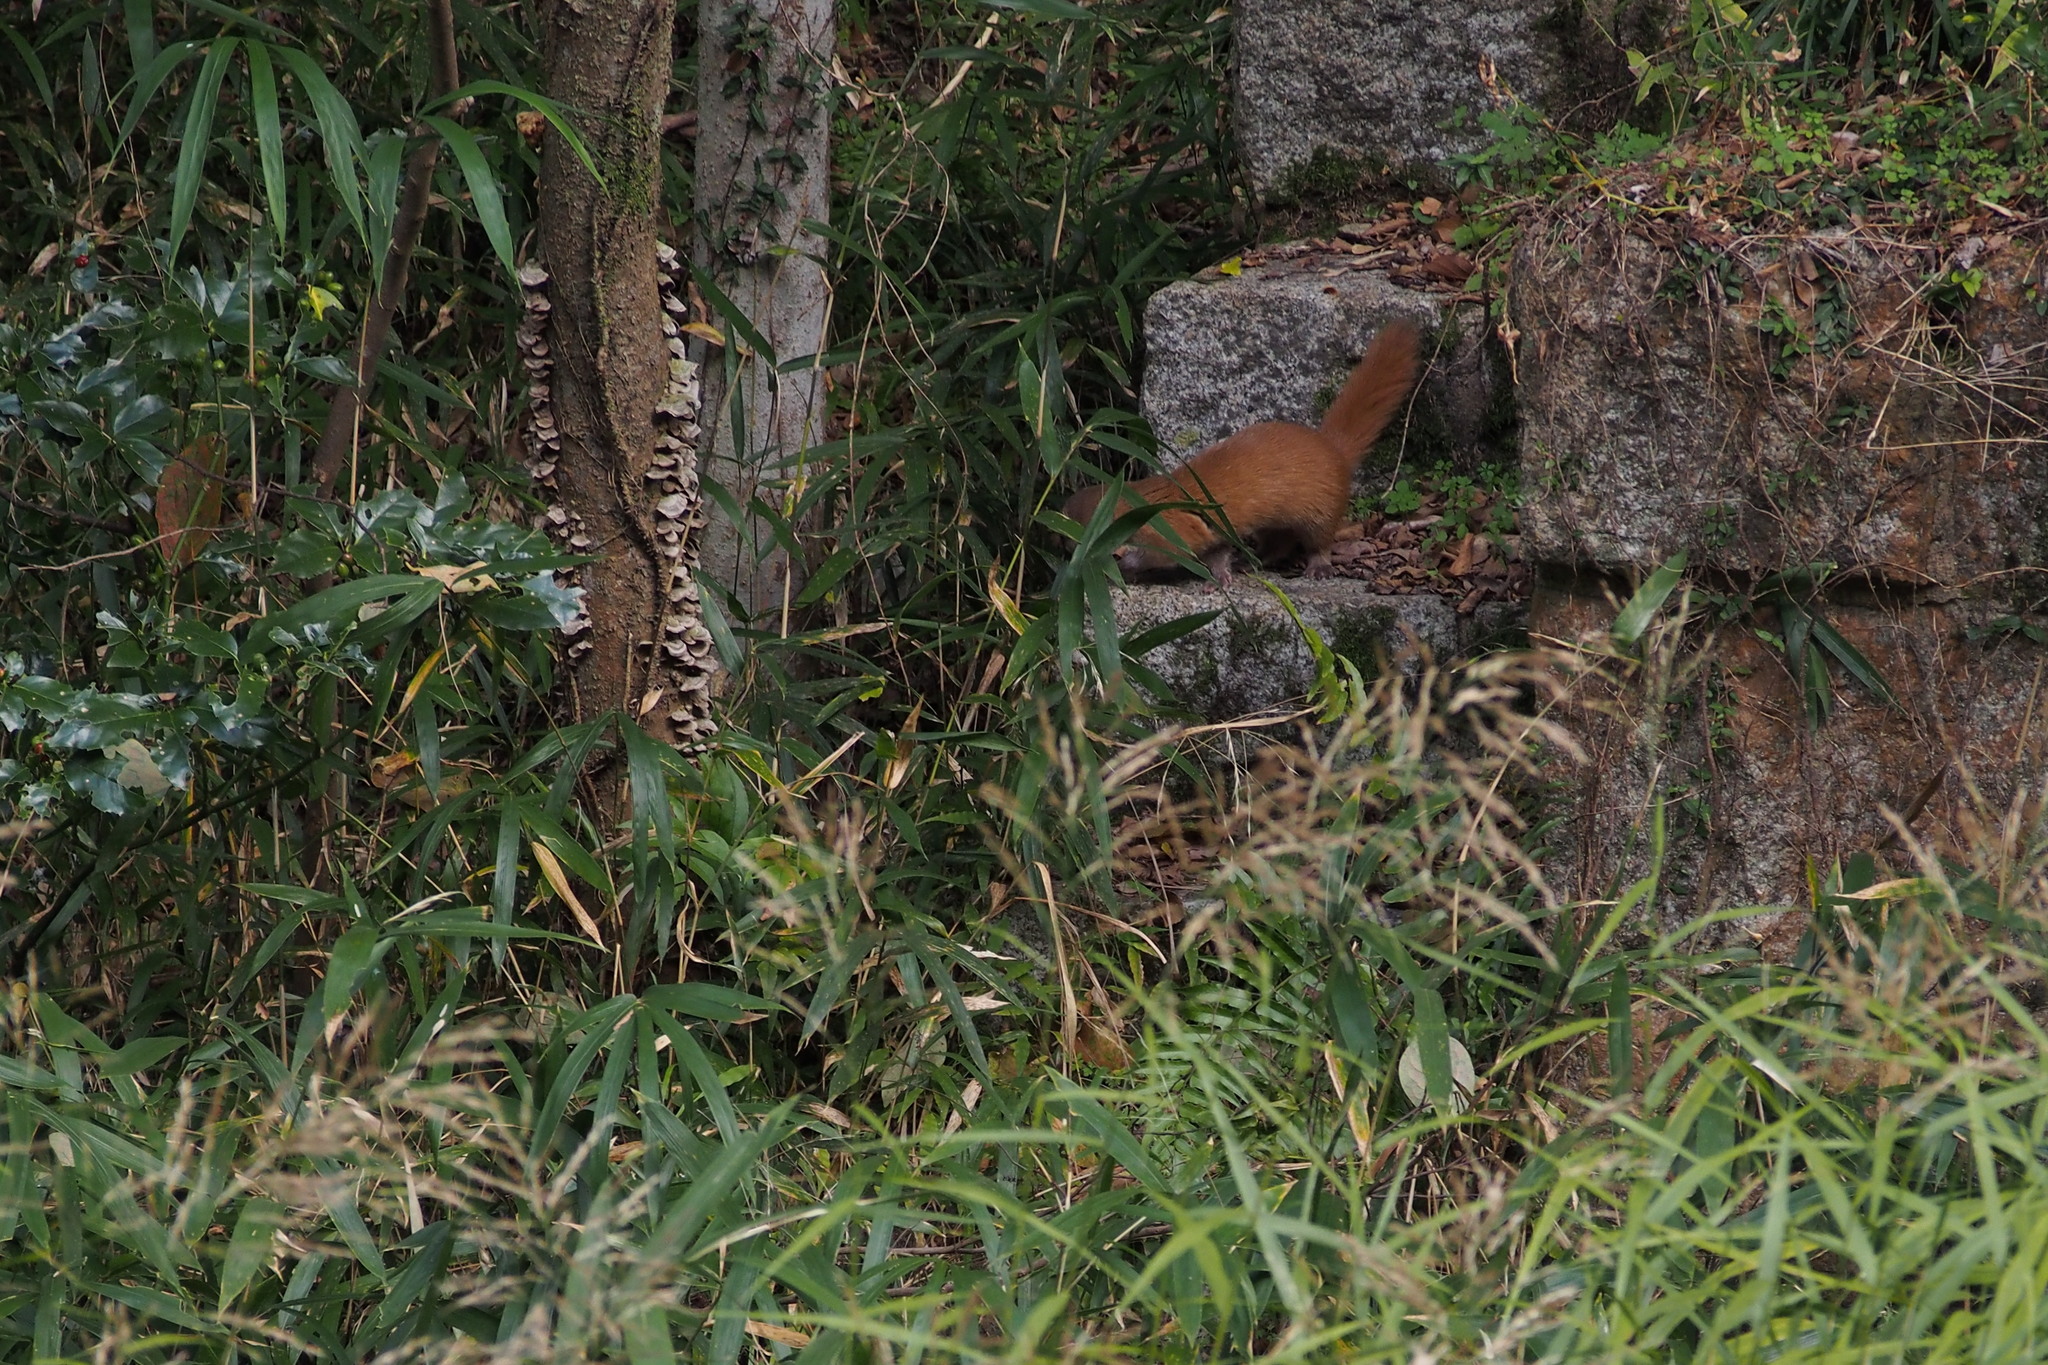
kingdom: Animalia
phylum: Chordata
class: Mammalia
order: Carnivora
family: Mustelidae
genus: Mustela
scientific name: Mustela itatsi
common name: Japanese weasel
